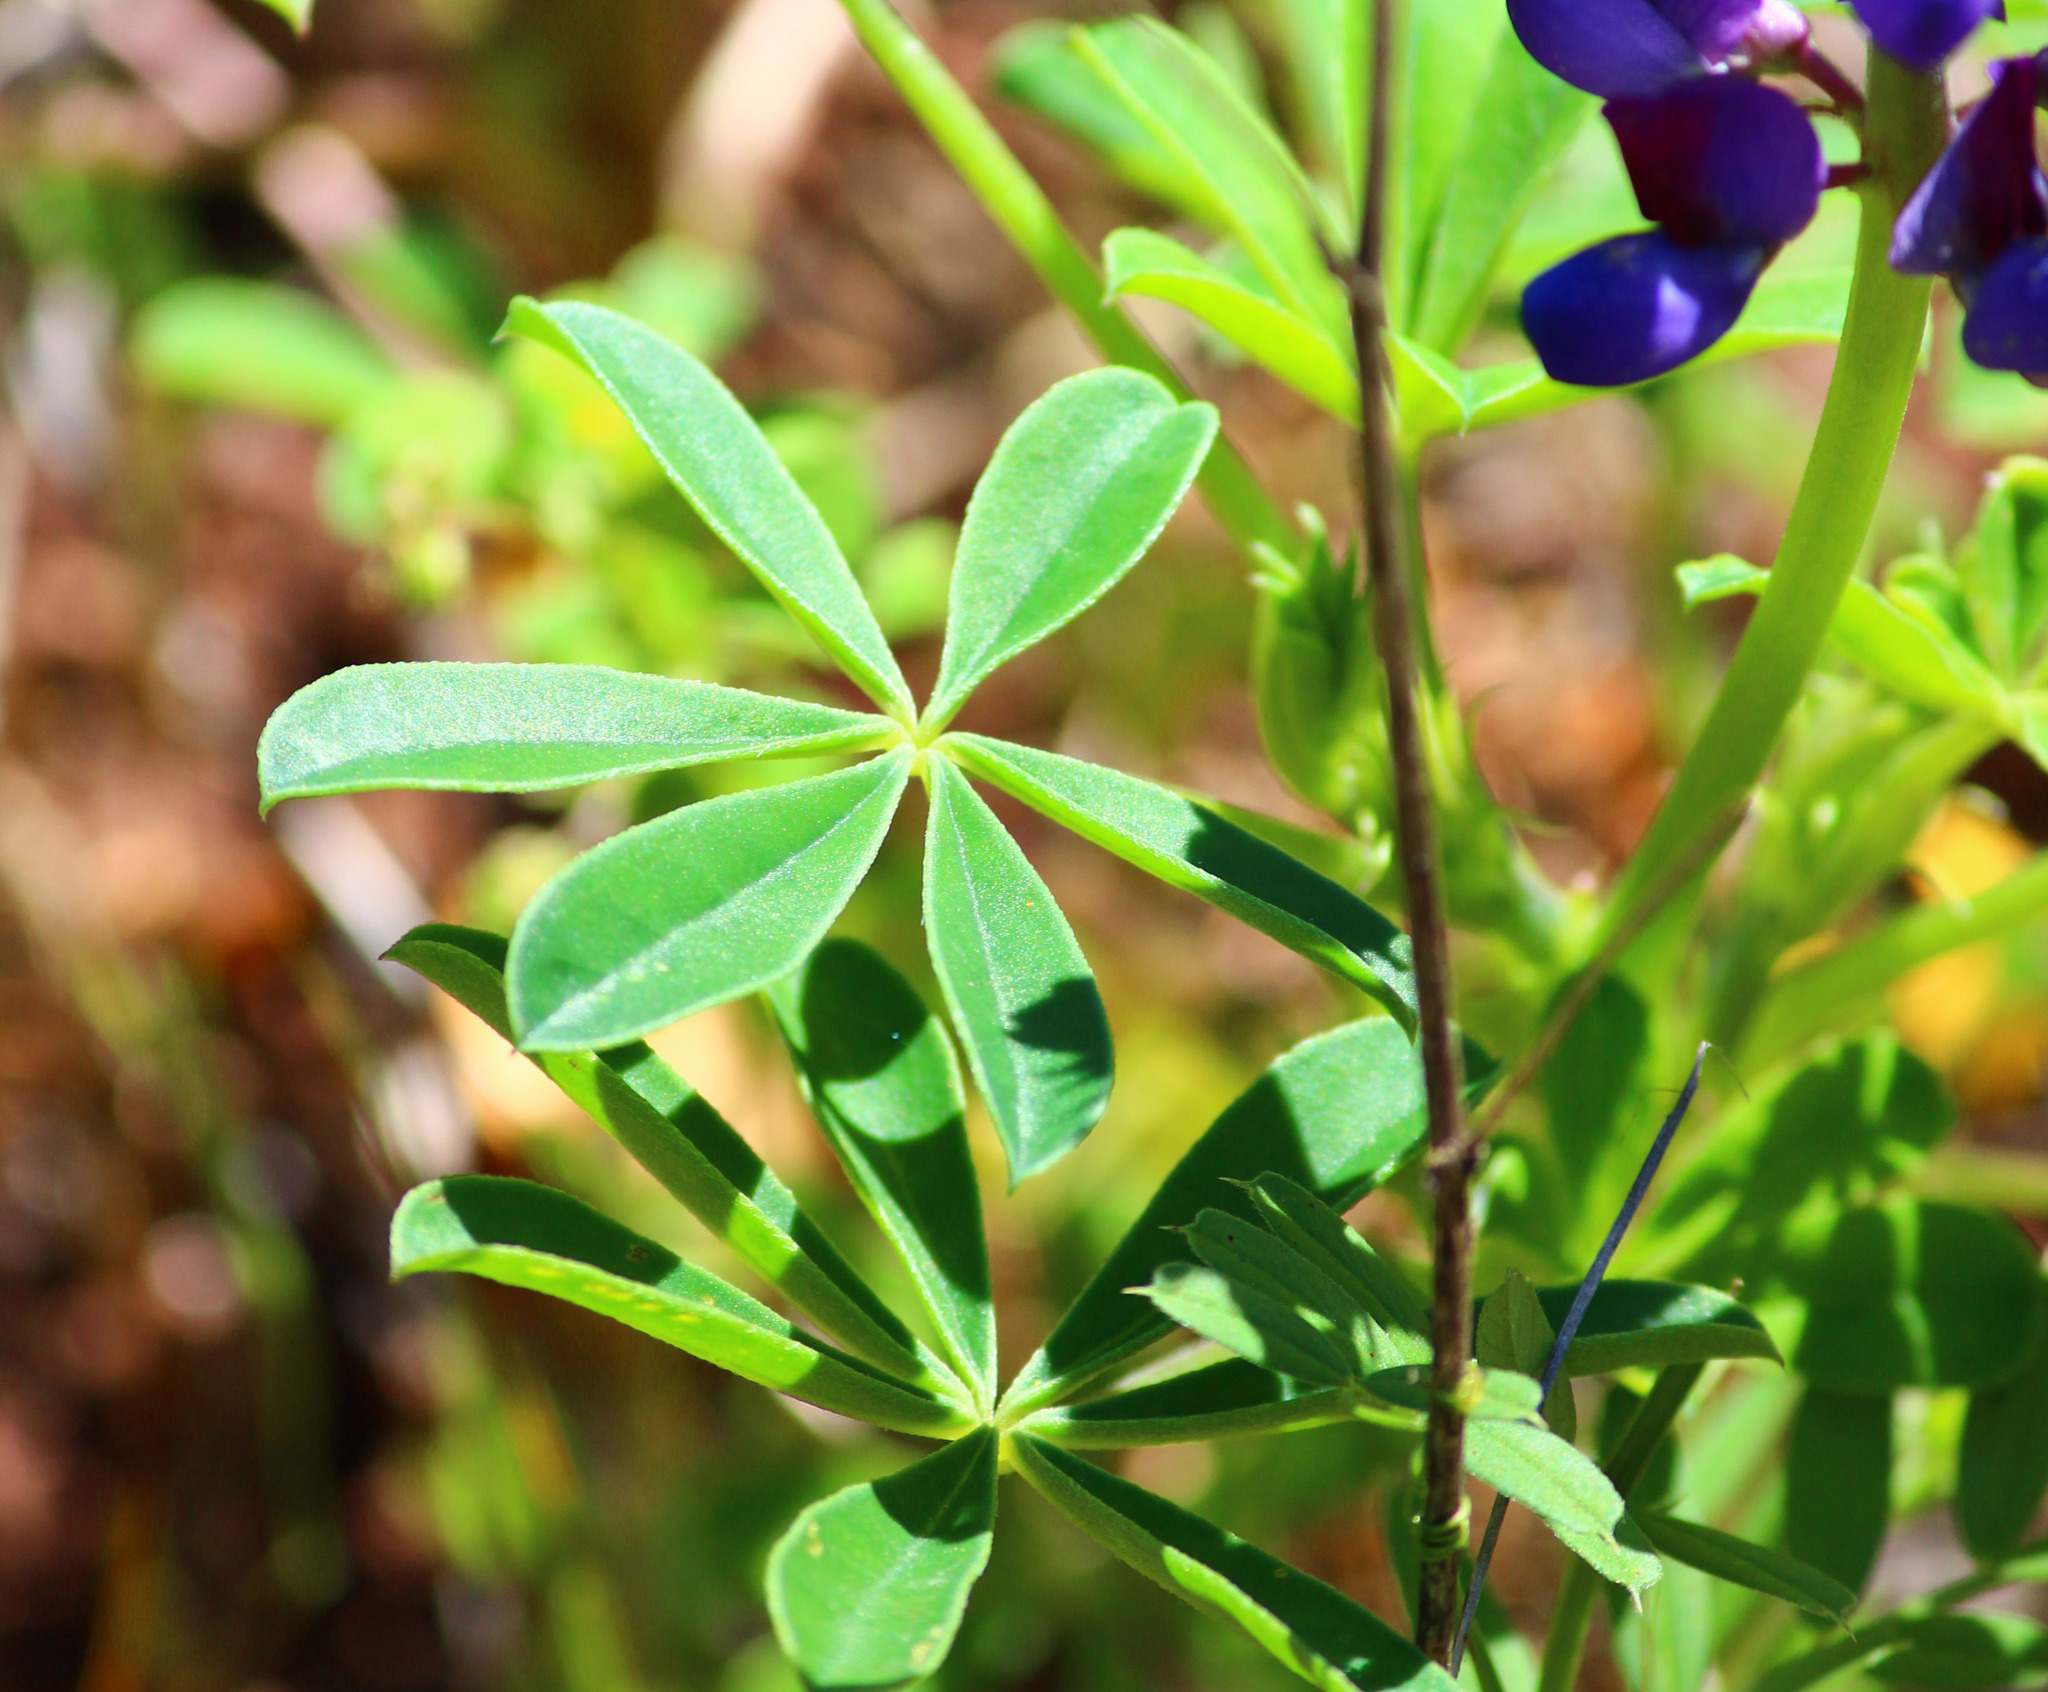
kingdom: Plantae
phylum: Tracheophyta
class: Magnoliopsida
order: Fabales
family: Fabaceae
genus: Lupinus
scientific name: Lupinus succulentus
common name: Arroyo lupine
